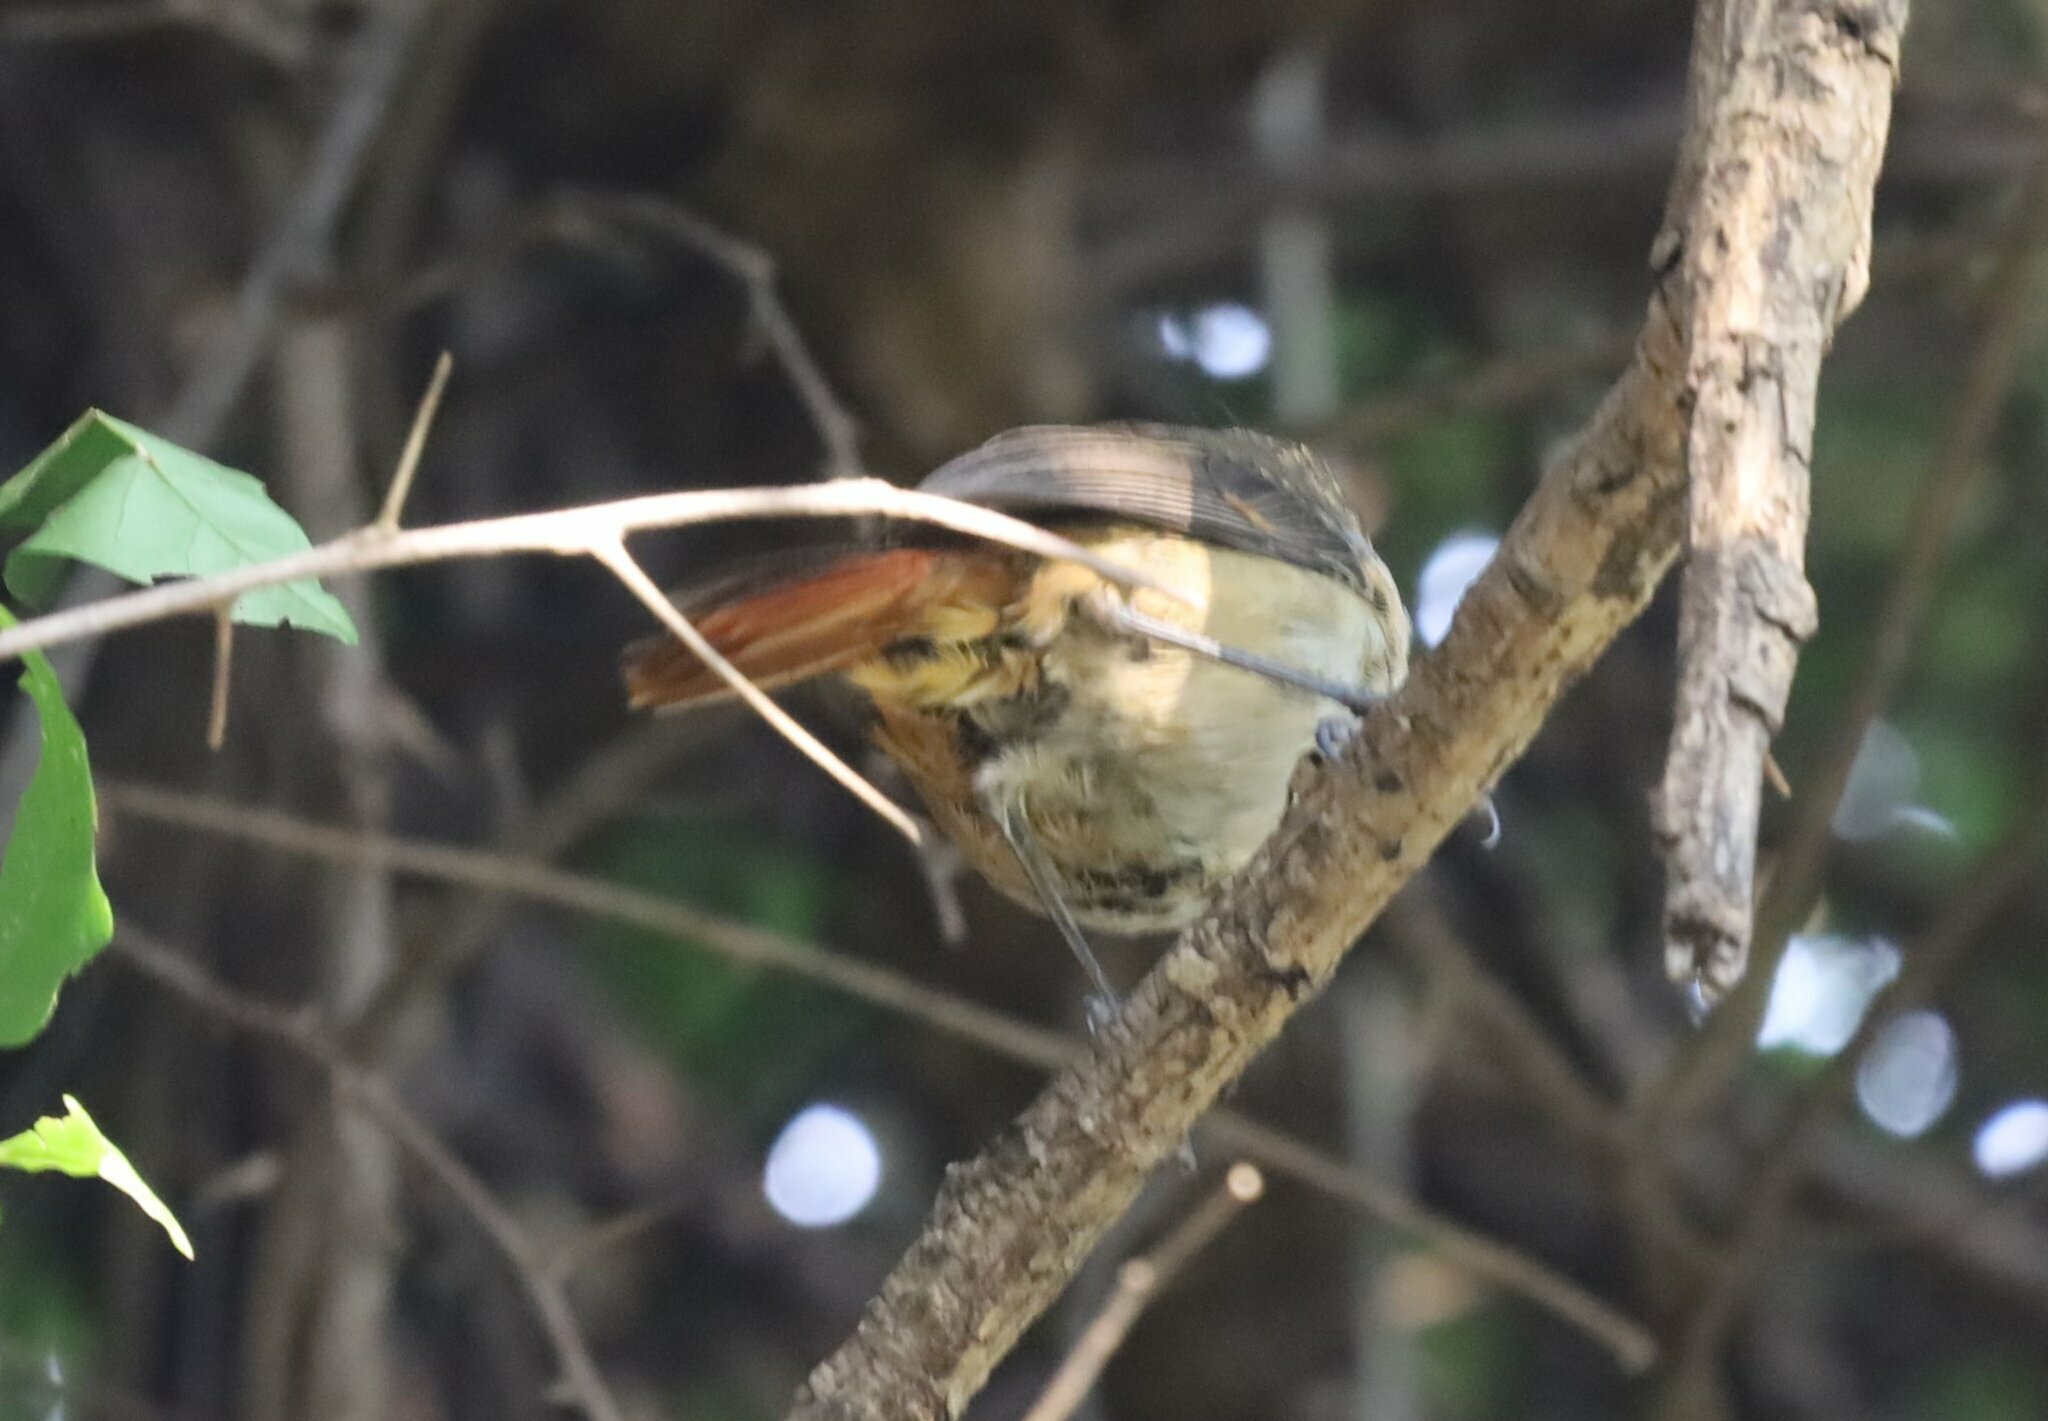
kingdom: Animalia
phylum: Chordata
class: Aves
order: Passeriformes
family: Muscicapidae
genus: Cossypha
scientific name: Cossypha caffra
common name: Cape robin-chat
